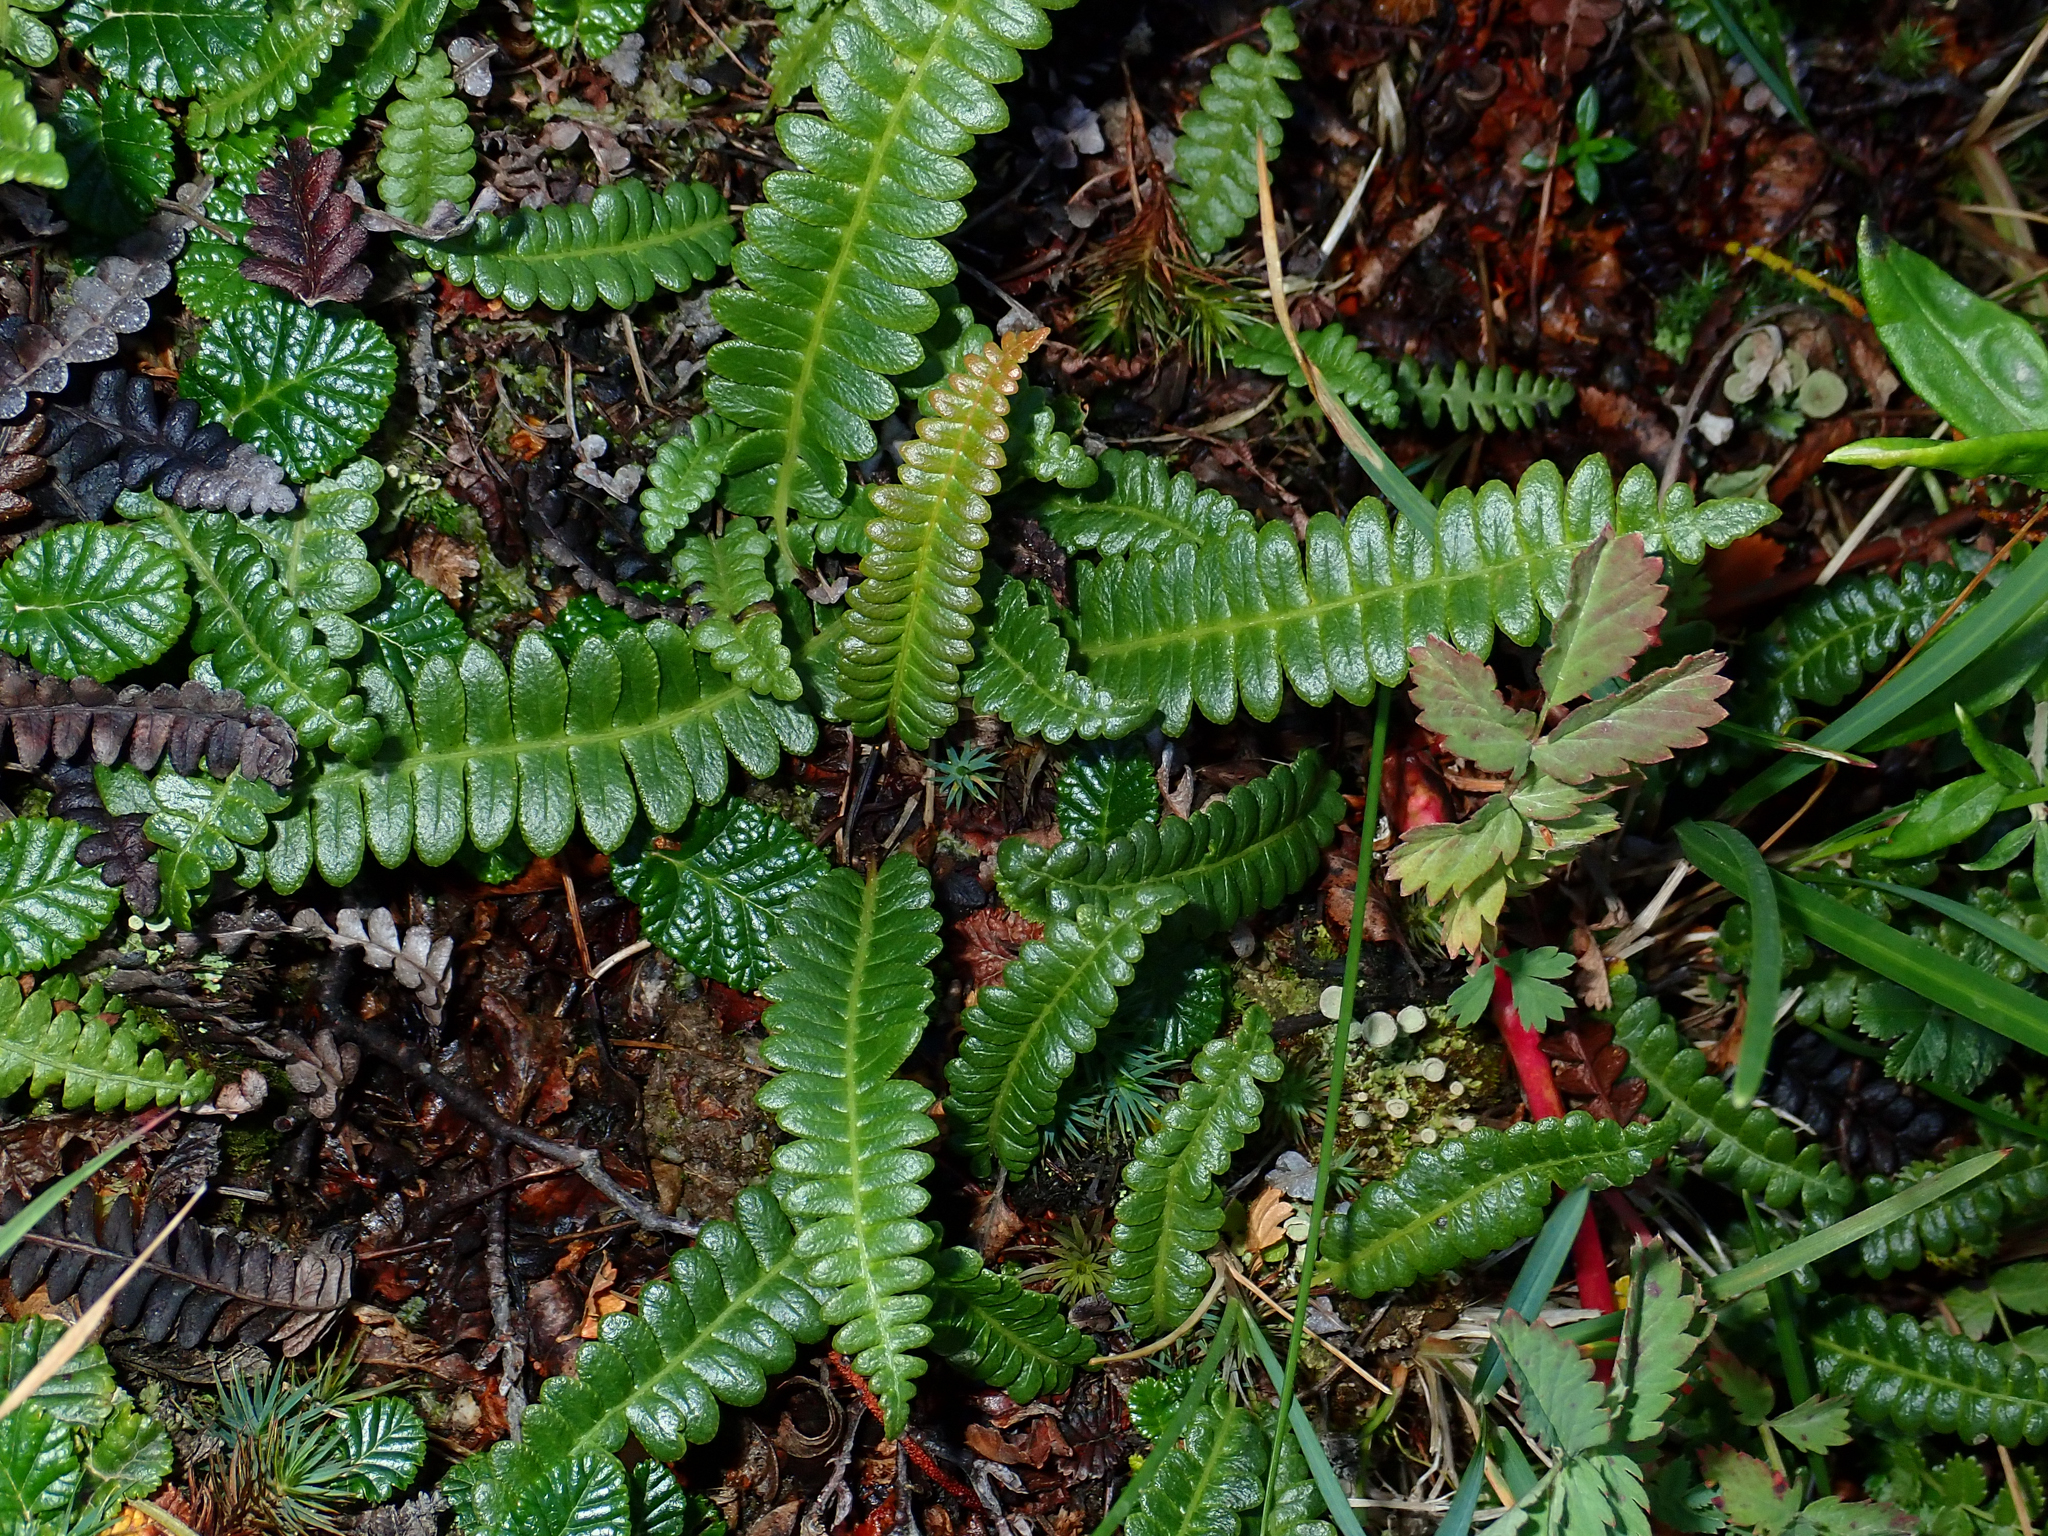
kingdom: Plantae
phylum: Tracheophyta
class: Polypodiopsida
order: Polypodiales
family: Blechnaceae
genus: Austroblechnum
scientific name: Austroblechnum penna-marina
